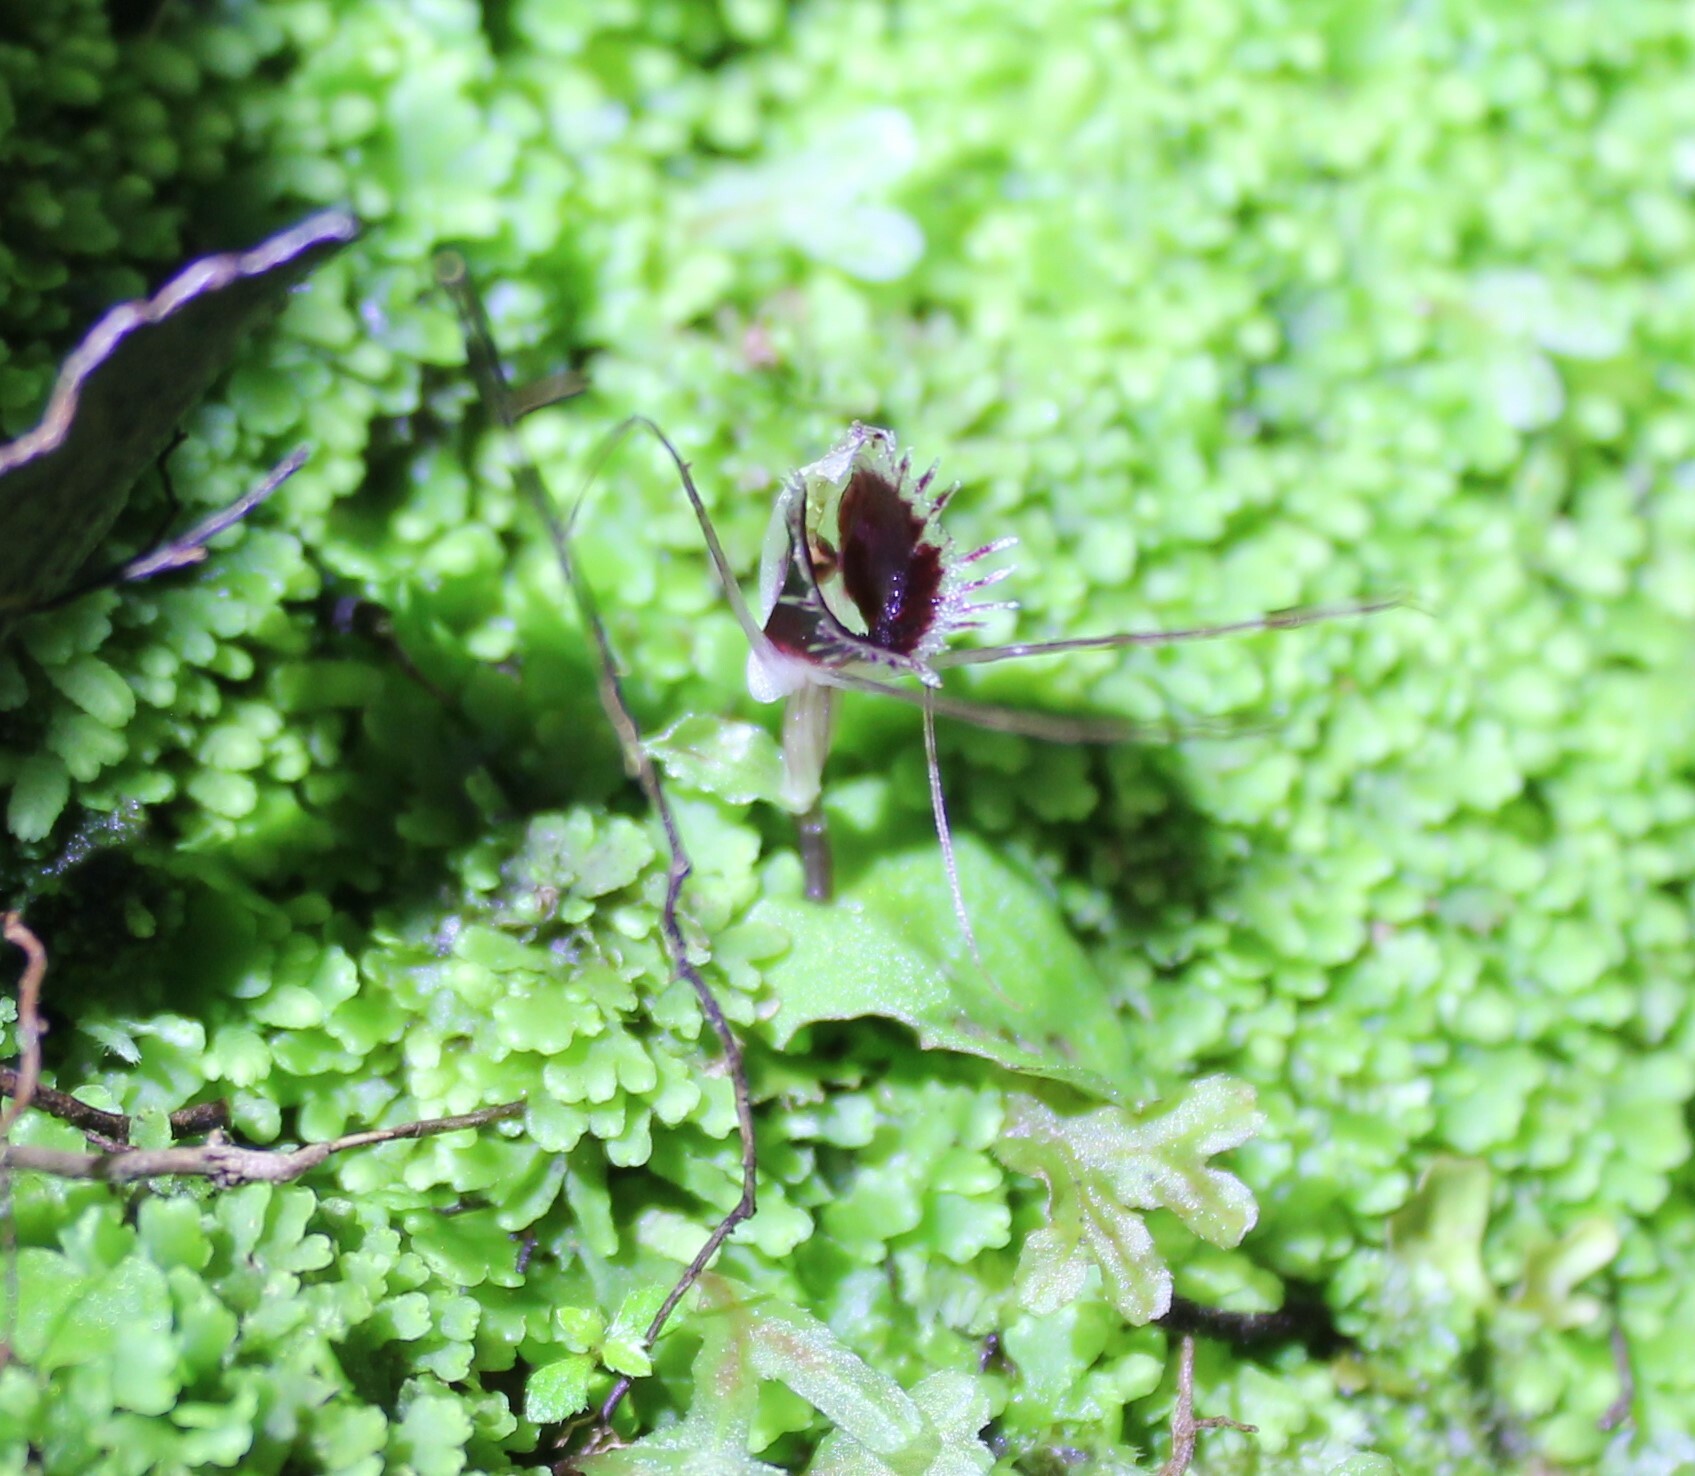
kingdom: Plantae
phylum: Tracheophyta
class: Liliopsida
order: Asparagales
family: Orchidaceae
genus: Corybas
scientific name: Corybas oblongus
